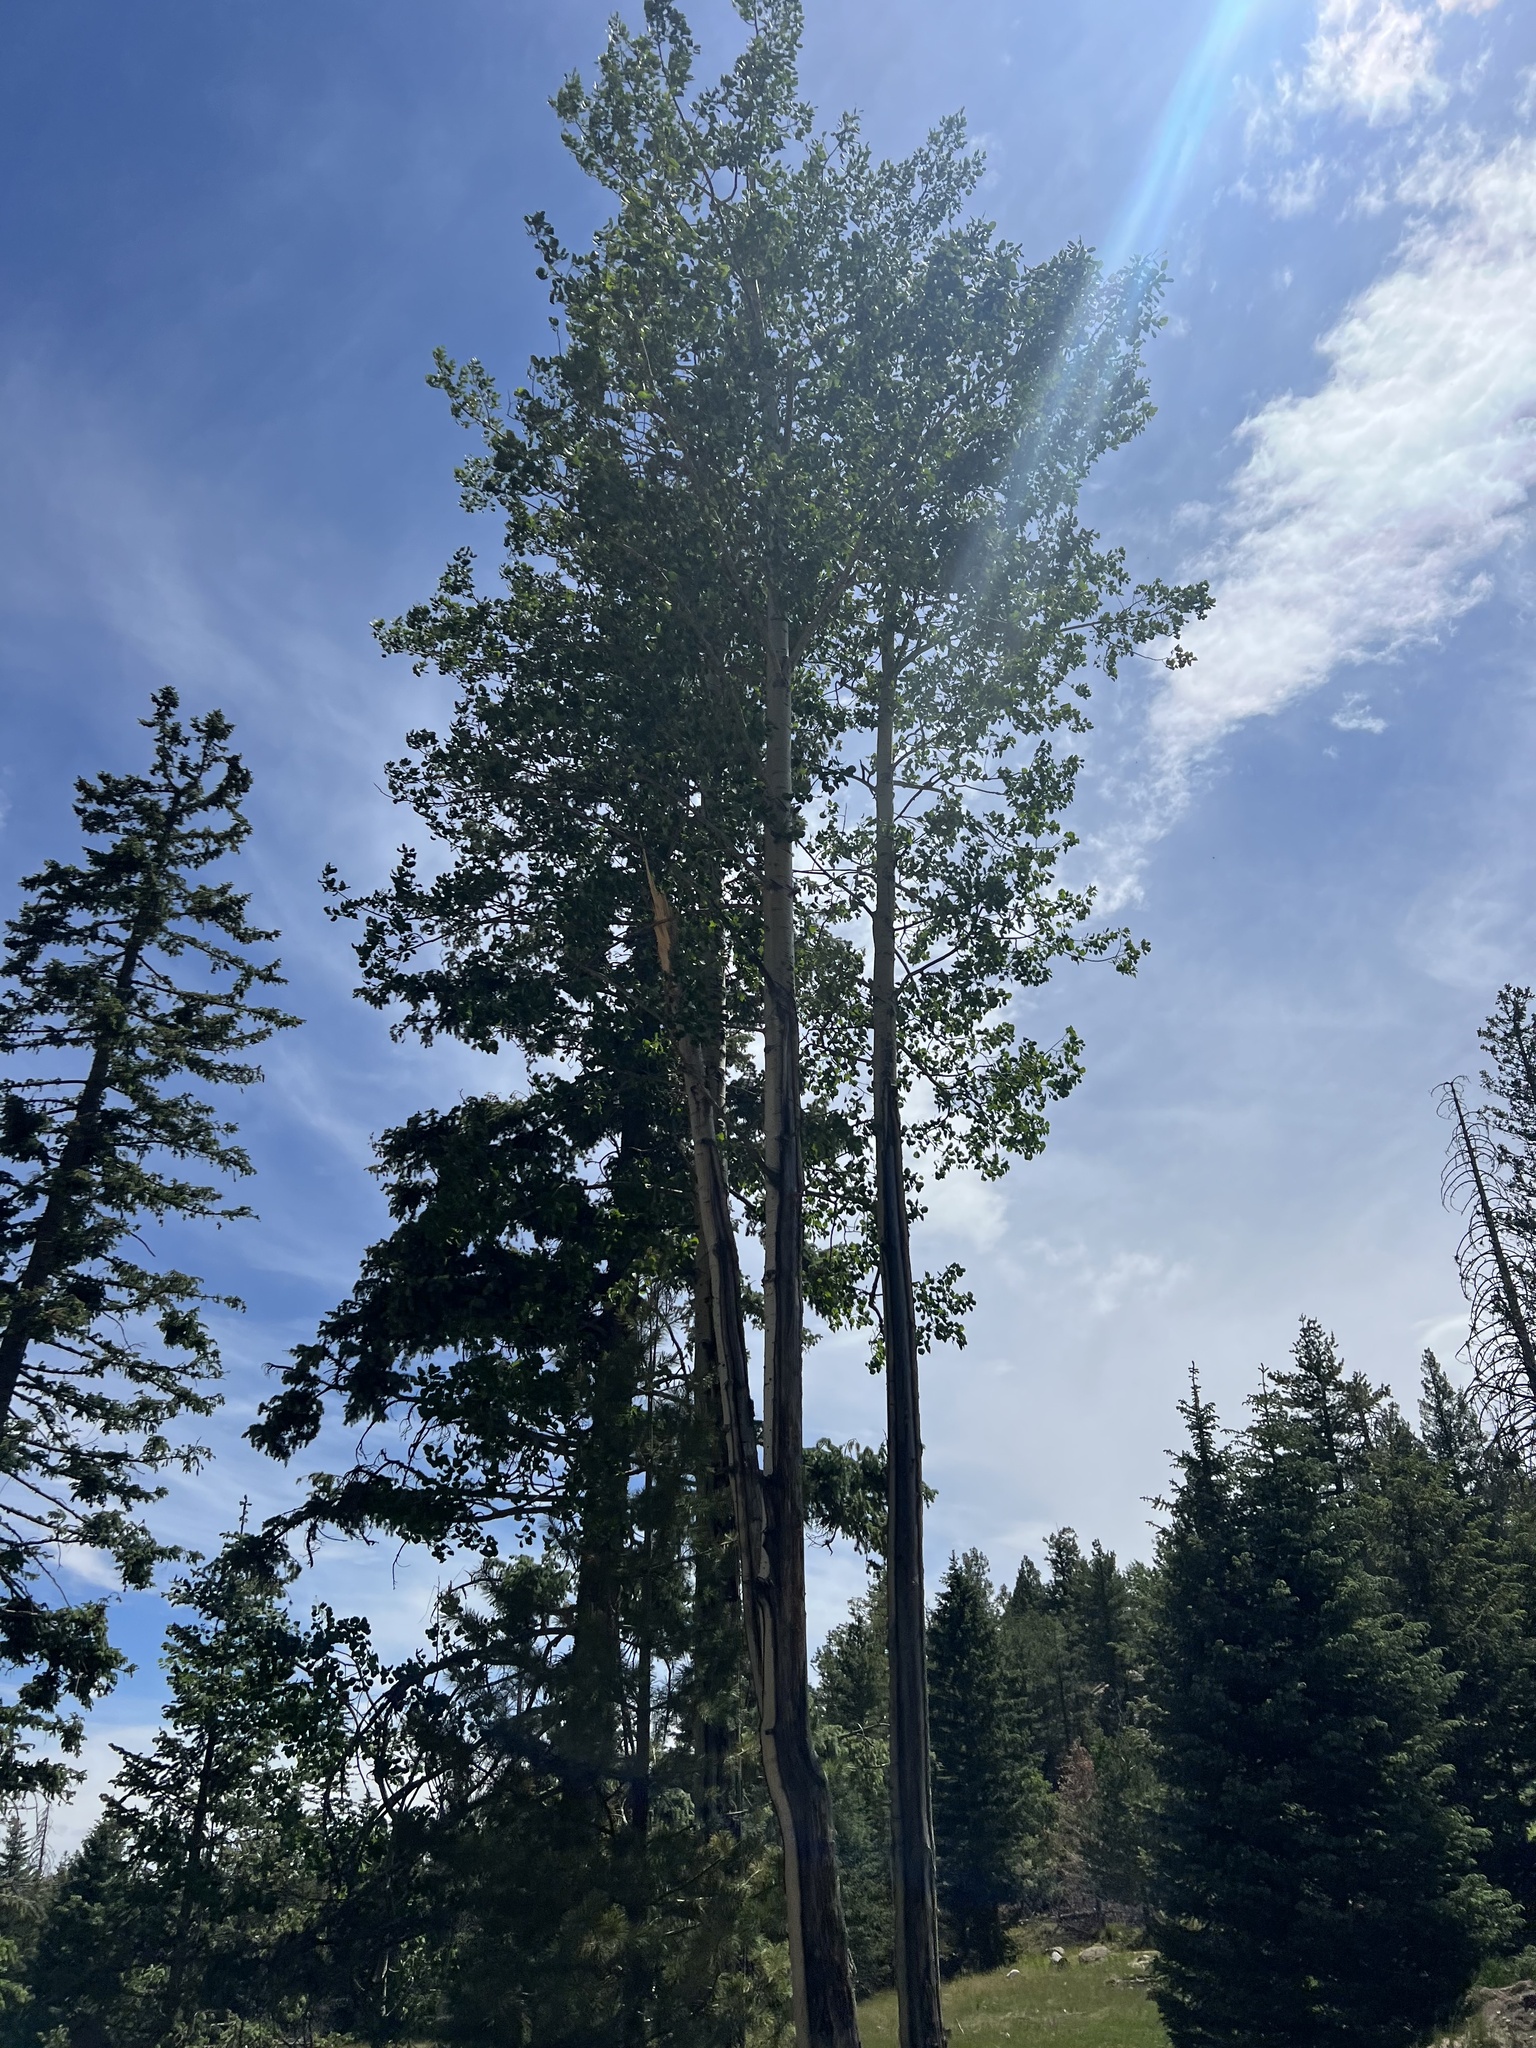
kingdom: Plantae
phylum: Tracheophyta
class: Magnoliopsida
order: Malpighiales
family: Salicaceae
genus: Populus
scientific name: Populus tremuloides
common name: Quaking aspen
